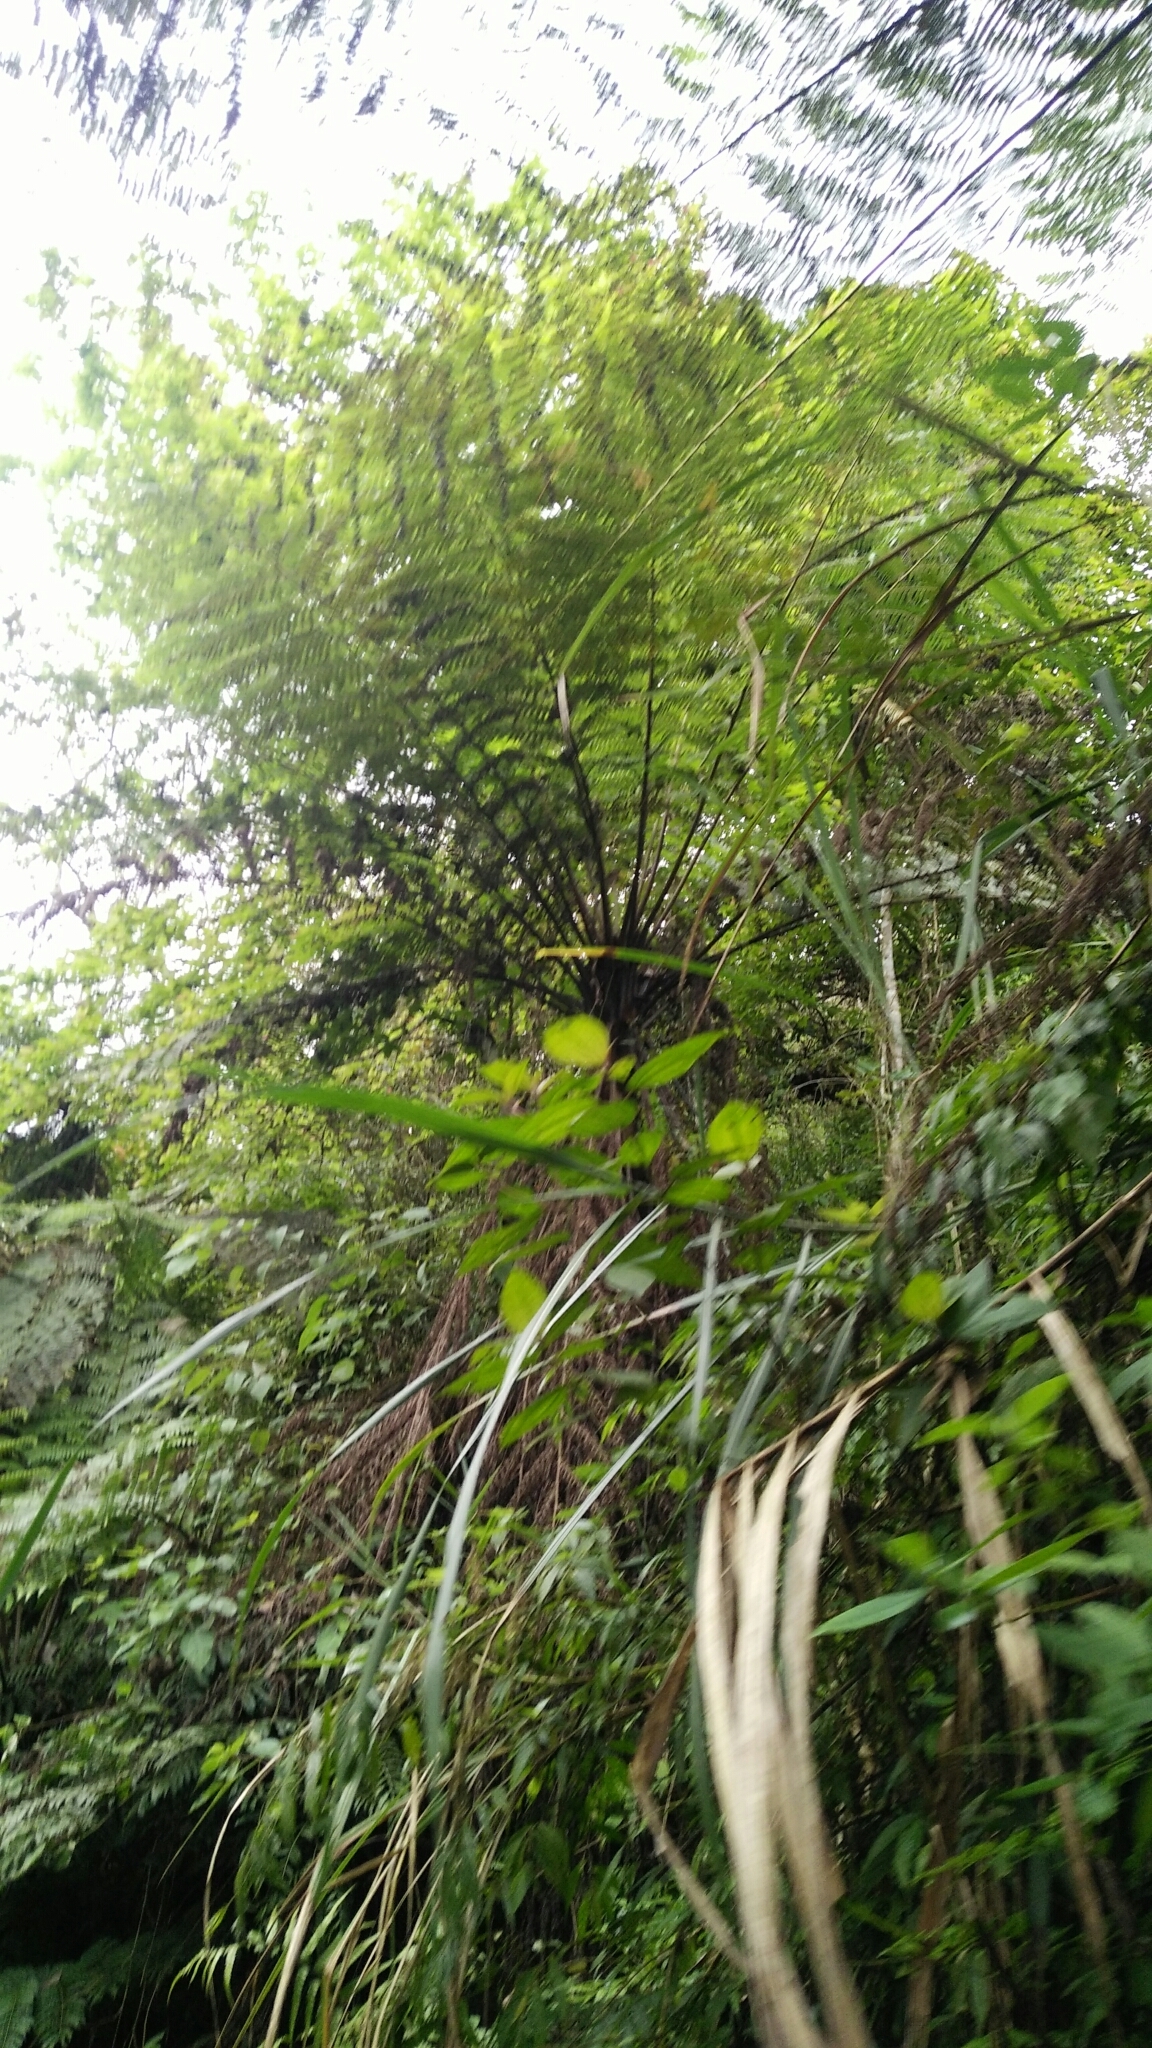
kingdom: Plantae
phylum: Tracheophyta
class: Polypodiopsida
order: Cyatheales
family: Cyatheaceae
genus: Alsophila
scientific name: Alsophila spinulosa
